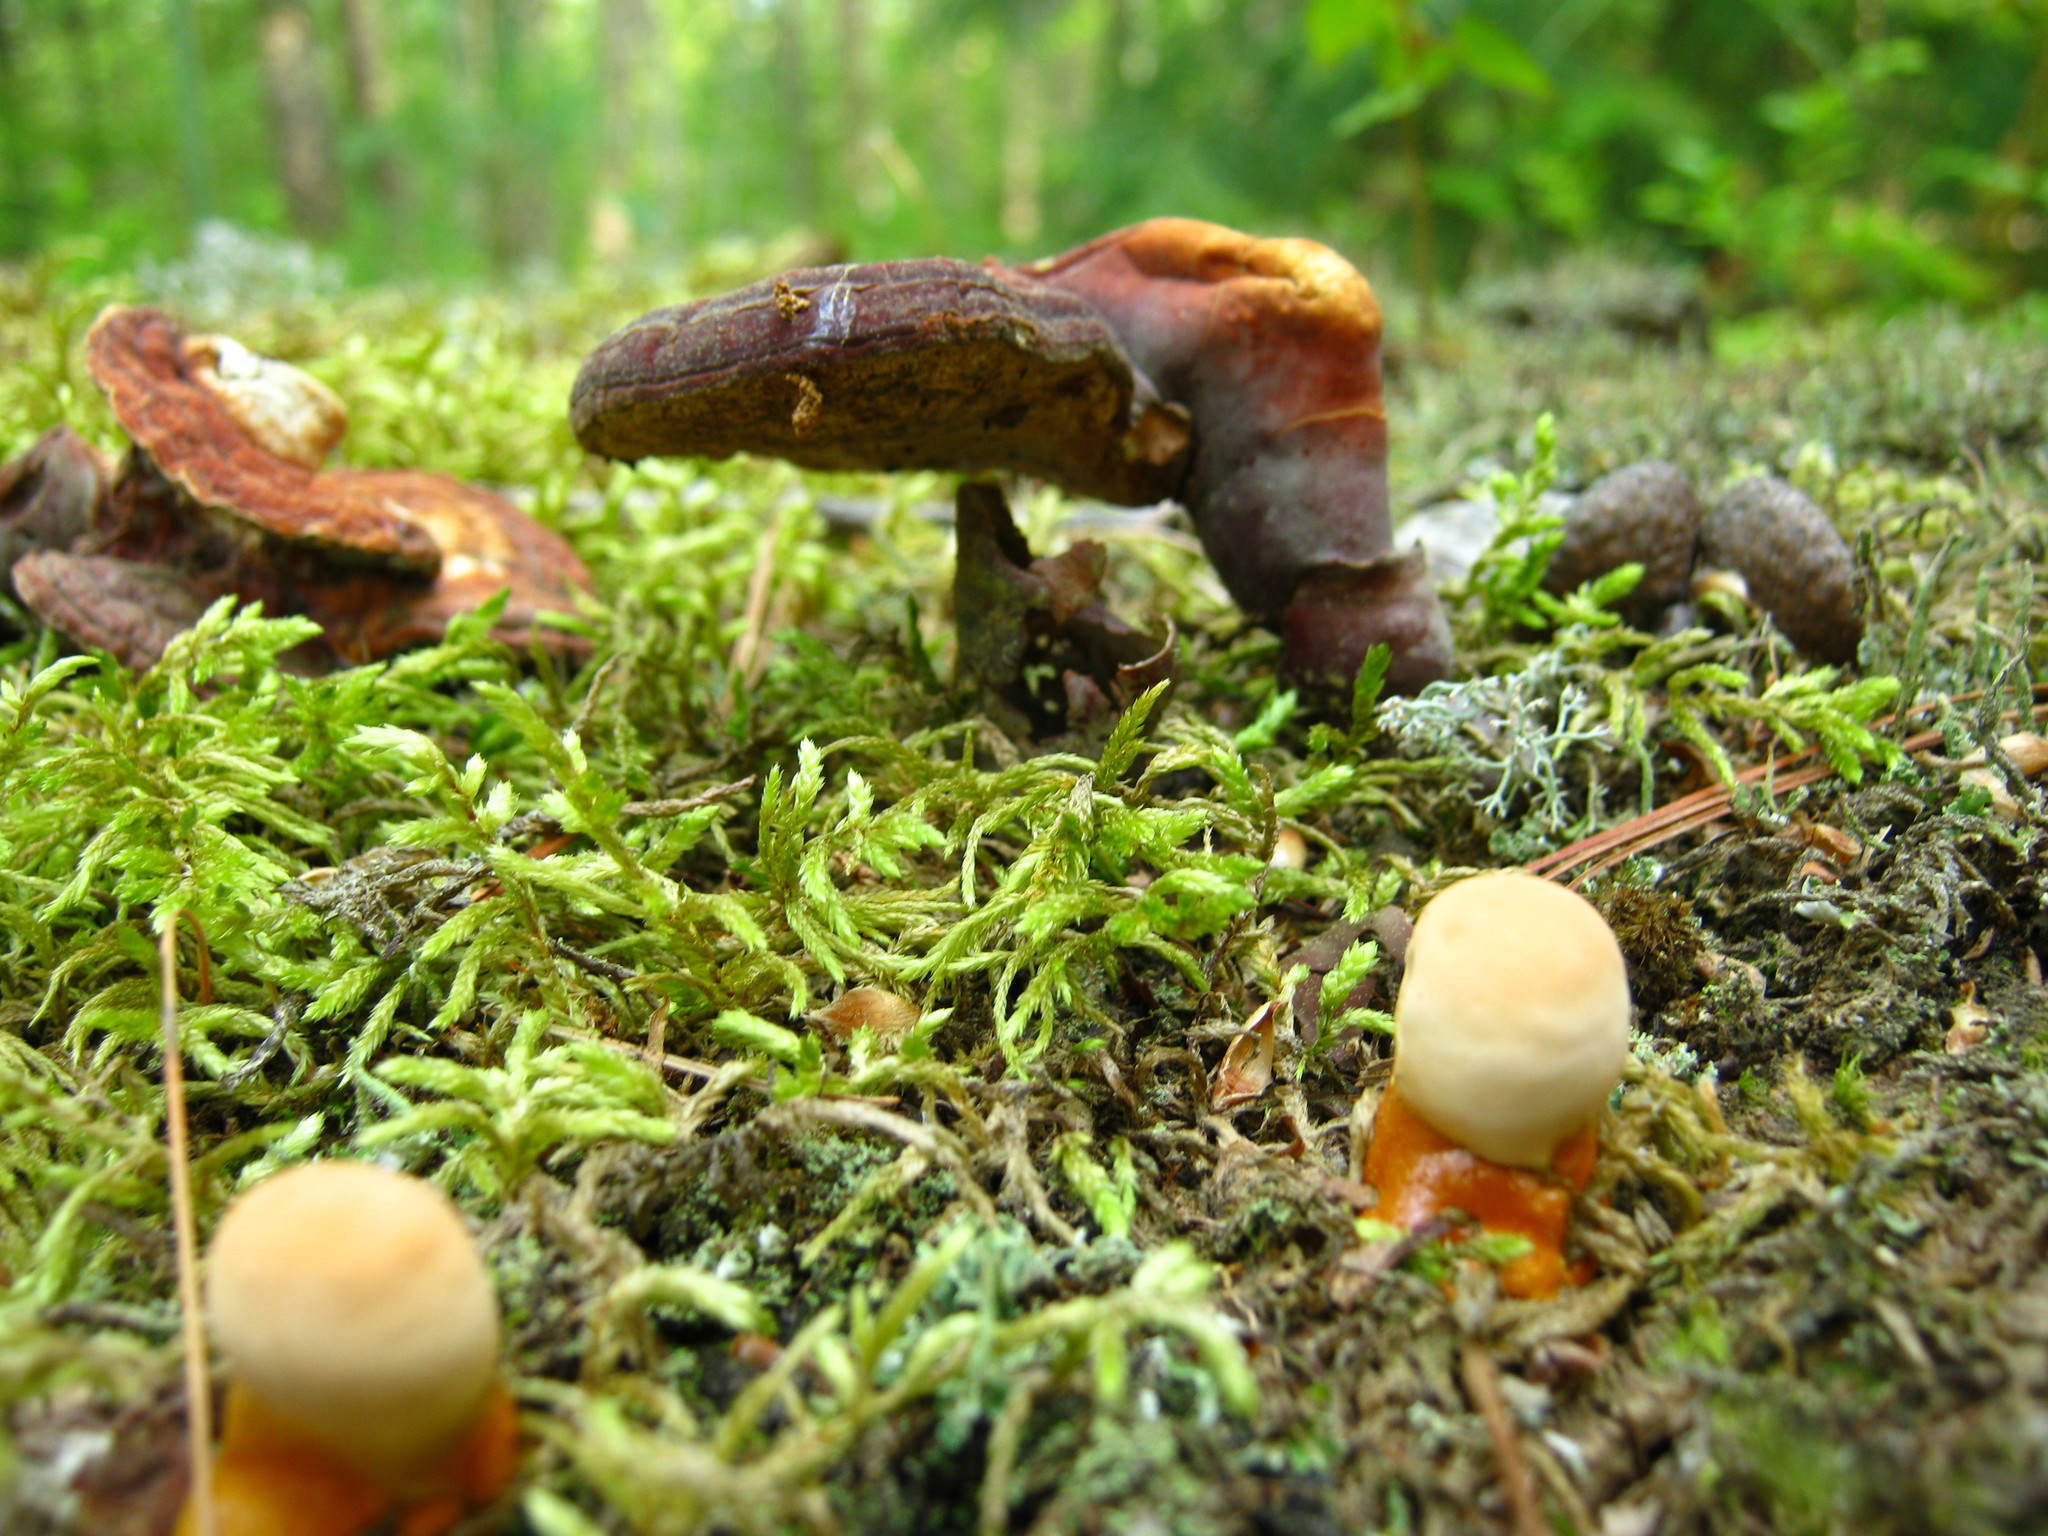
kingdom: Fungi
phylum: Basidiomycota
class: Agaricomycetes
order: Polyporales
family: Polyporaceae
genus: Ganoderma
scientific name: Ganoderma tsugae
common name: Hemlock varnish shelf
